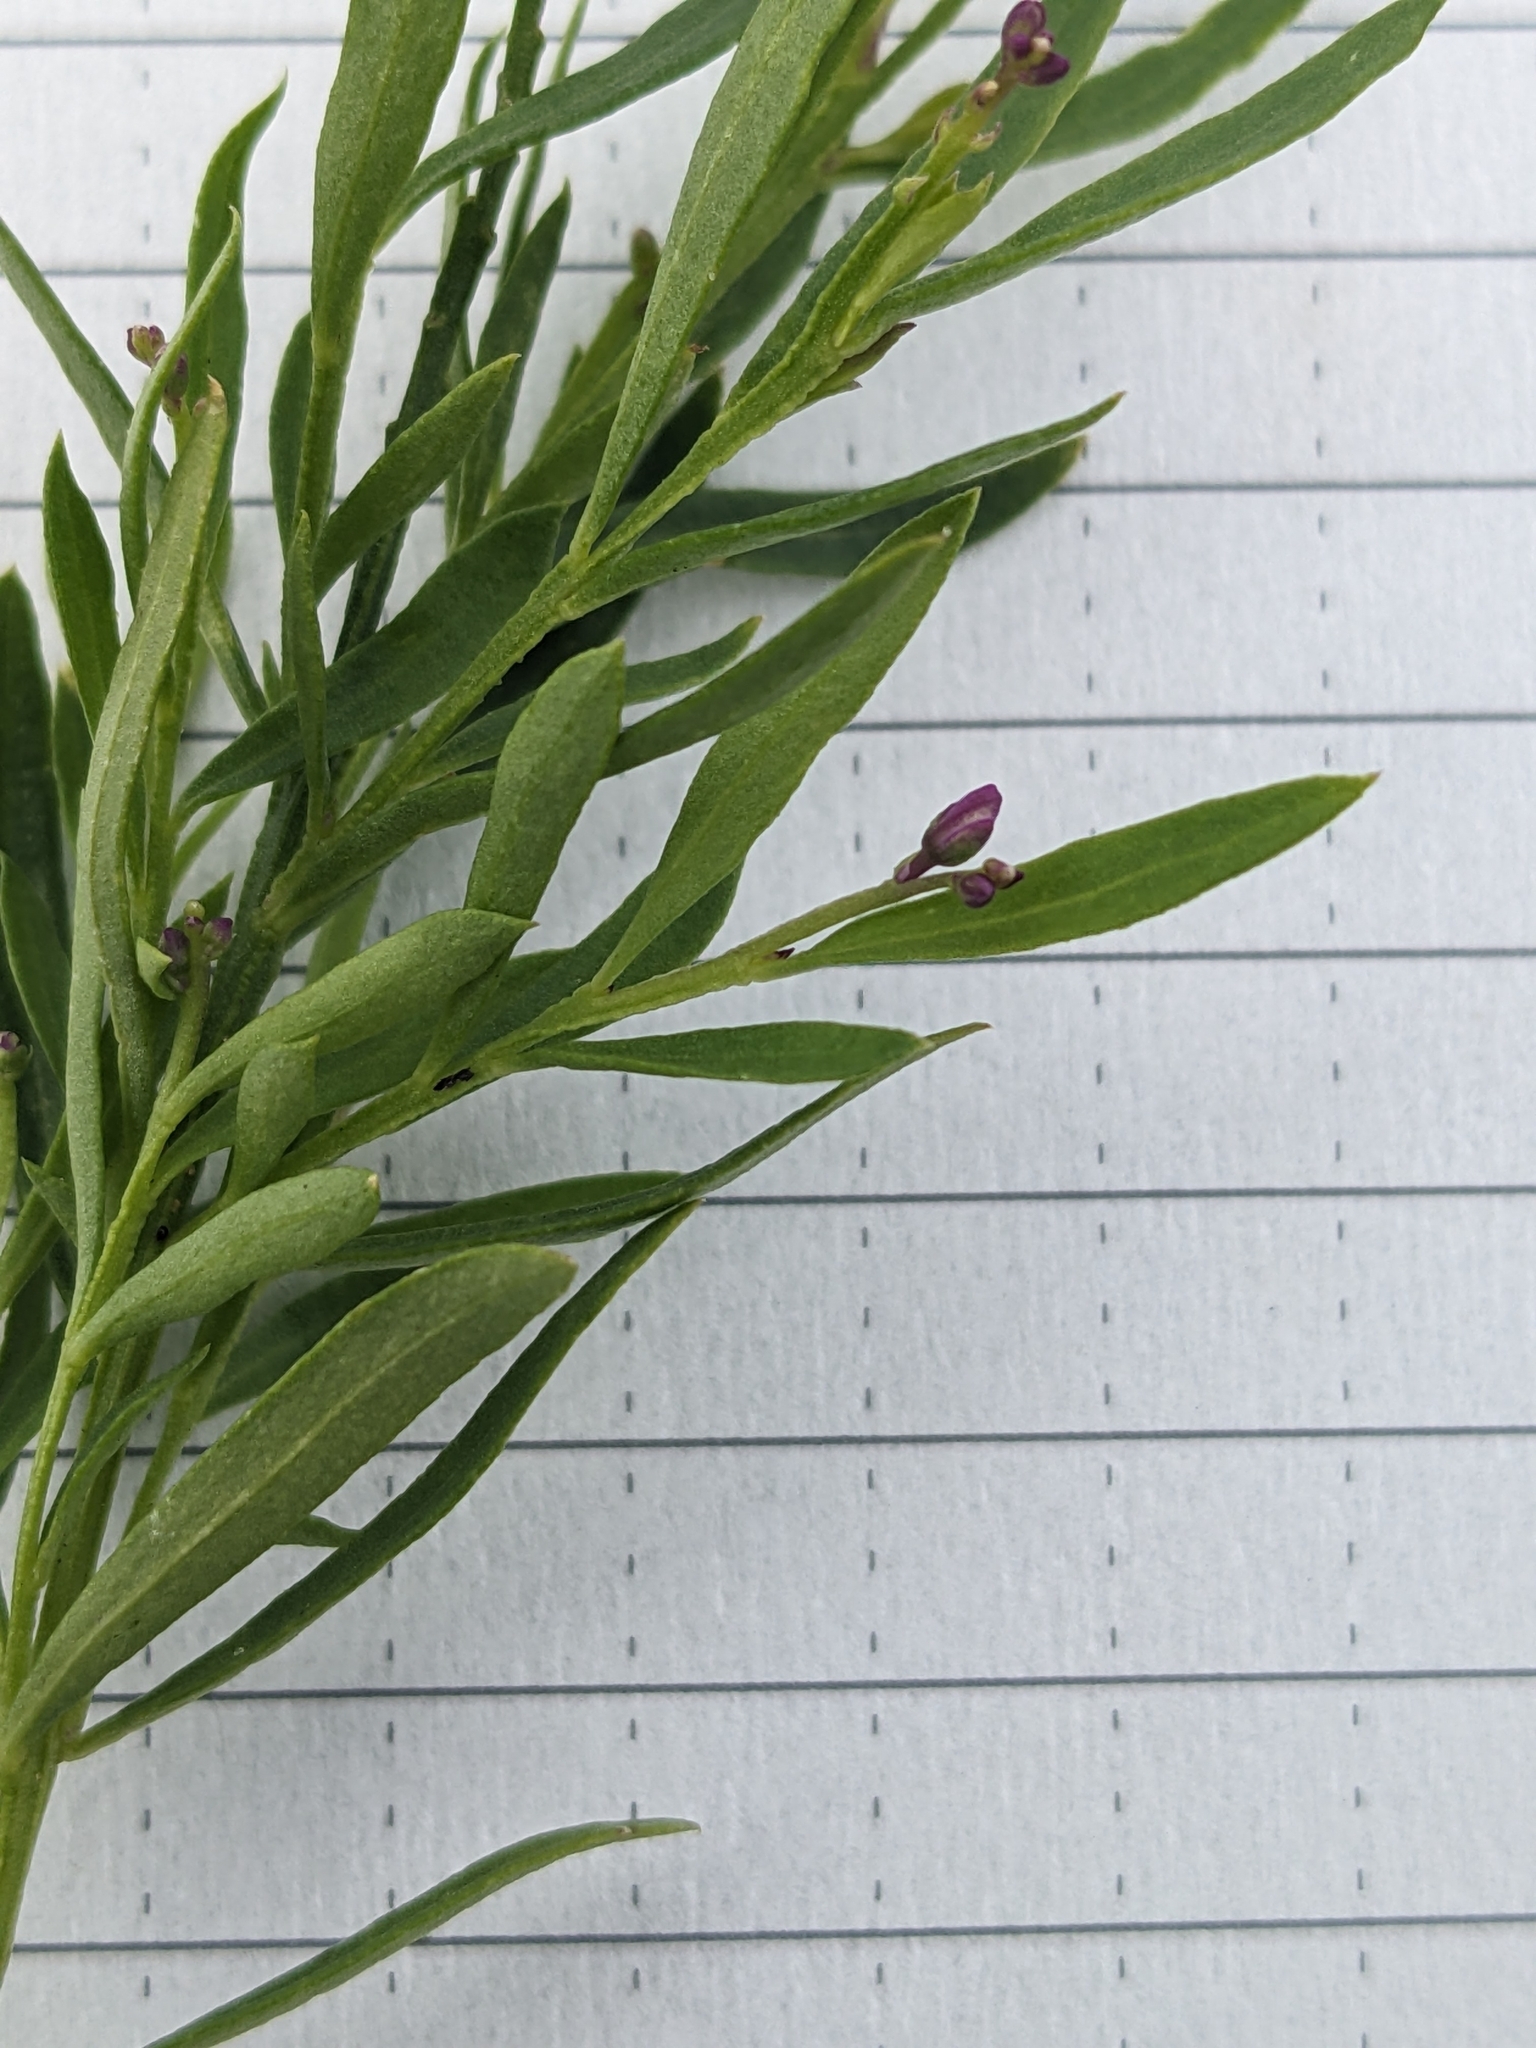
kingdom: Plantae
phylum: Tracheophyta
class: Magnoliopsida
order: Fabales
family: Polygalaceae
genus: Polygala
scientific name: Polygala polygama
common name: Bitter milkwort
